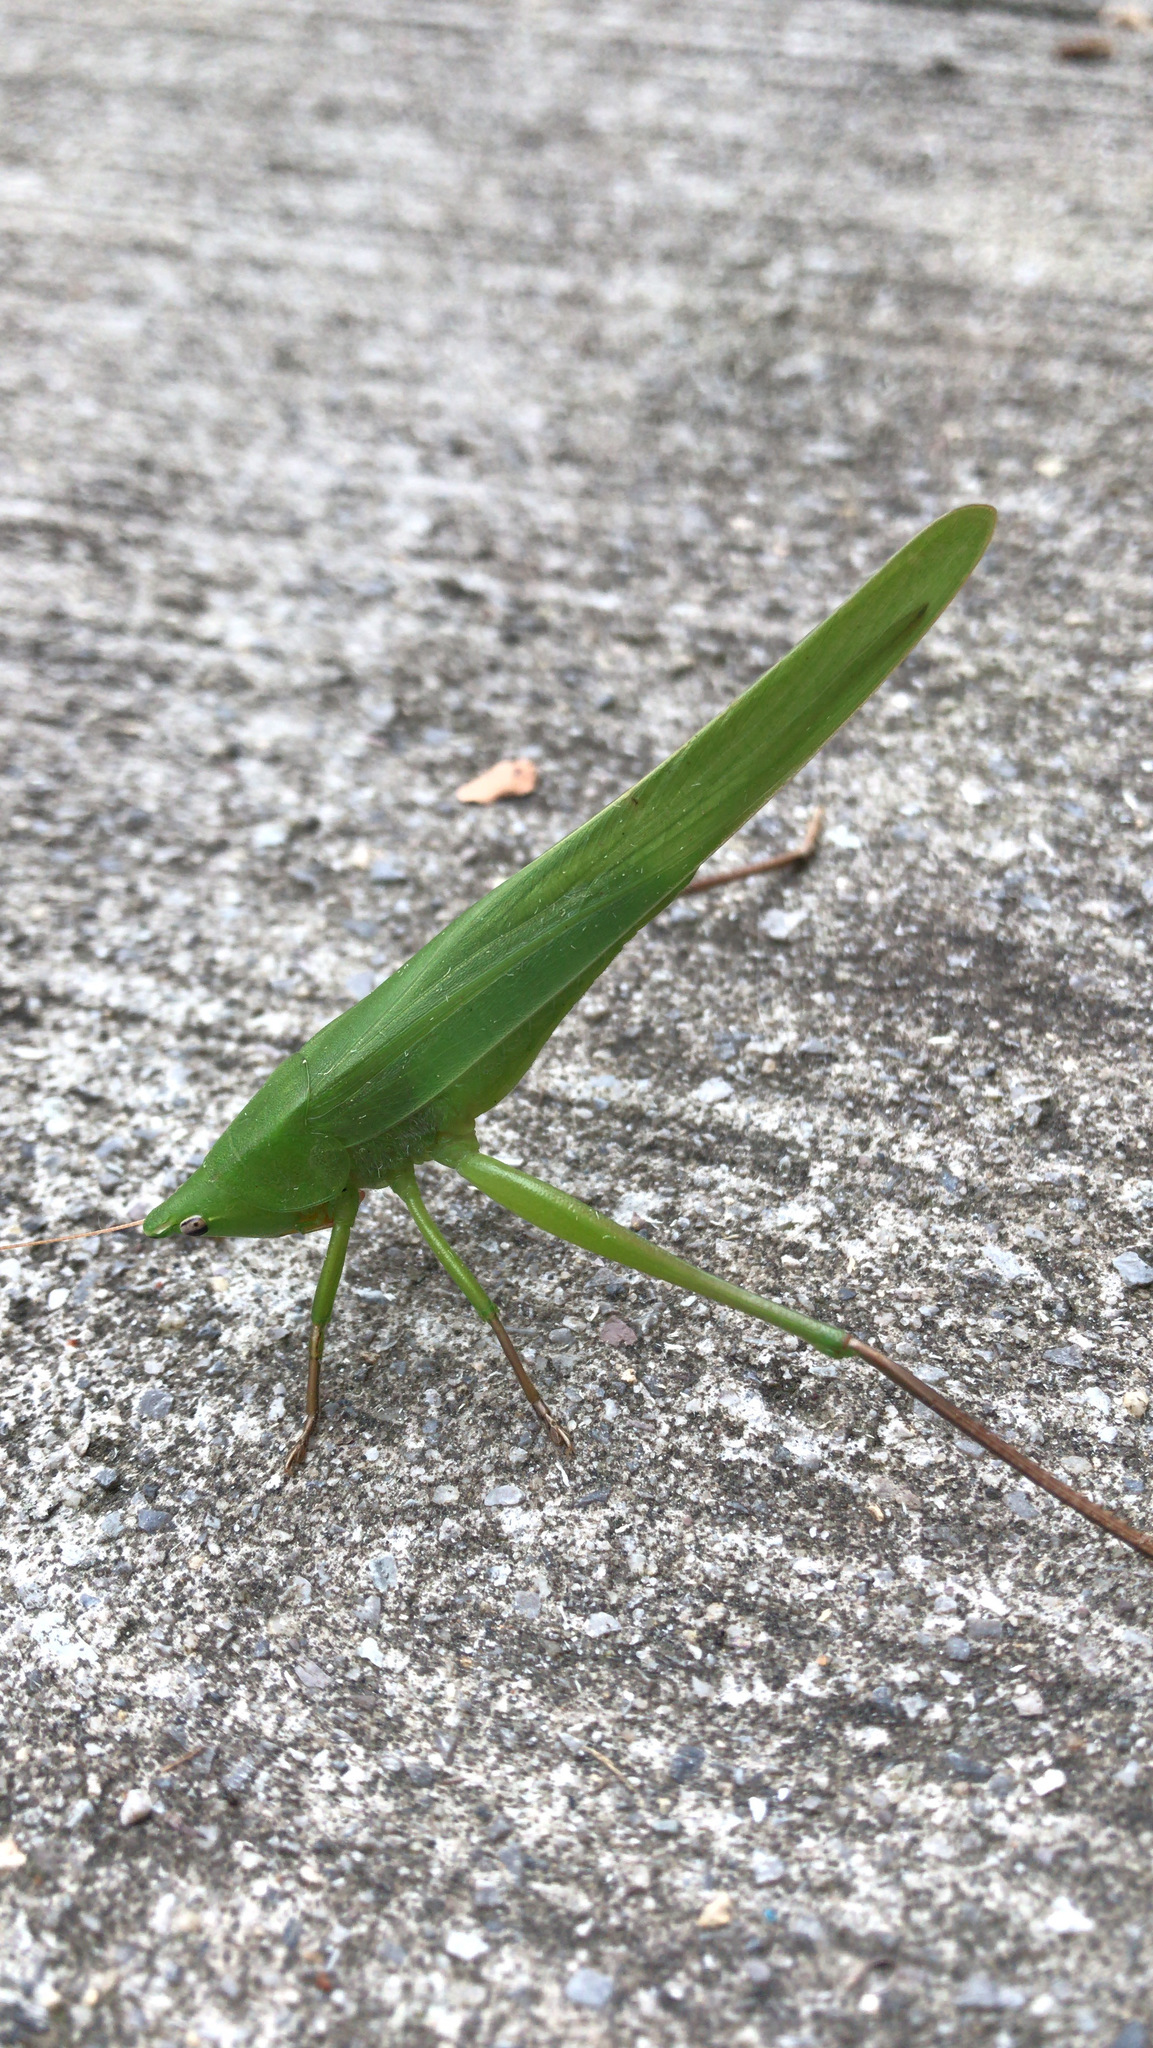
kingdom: Animalia
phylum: Arthropoda
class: Insecta
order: Orthoptera
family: Tettigoniidae
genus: Neoconocephalus
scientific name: Neoconocephalus triops
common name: Broad-tipped conehead
